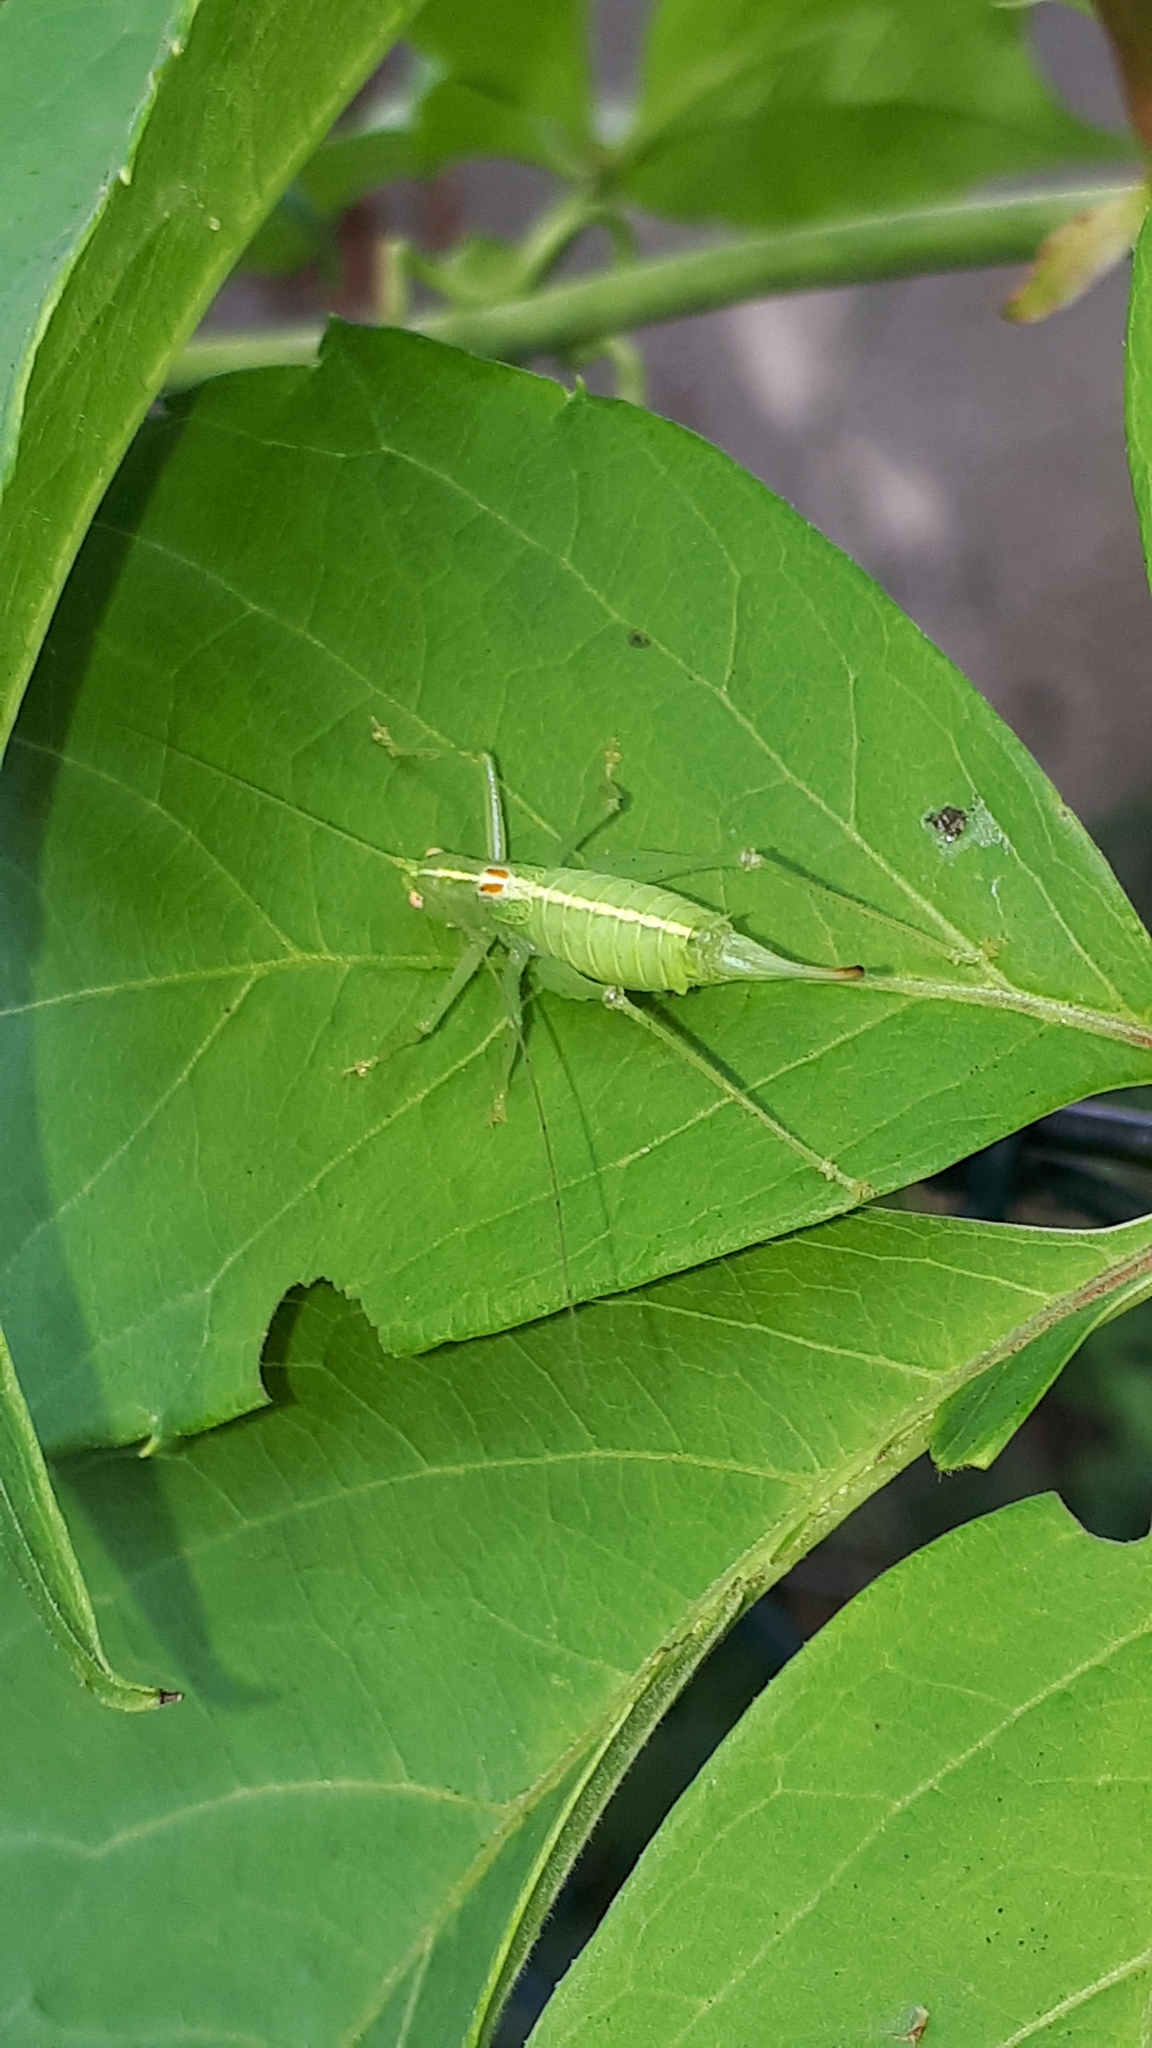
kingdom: Animalia
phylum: Arthropoda
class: Insecta
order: Orthoptera
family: Tettigoniidae
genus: Meconema
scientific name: Meconema meridionale
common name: Southern oak bush-cricket
